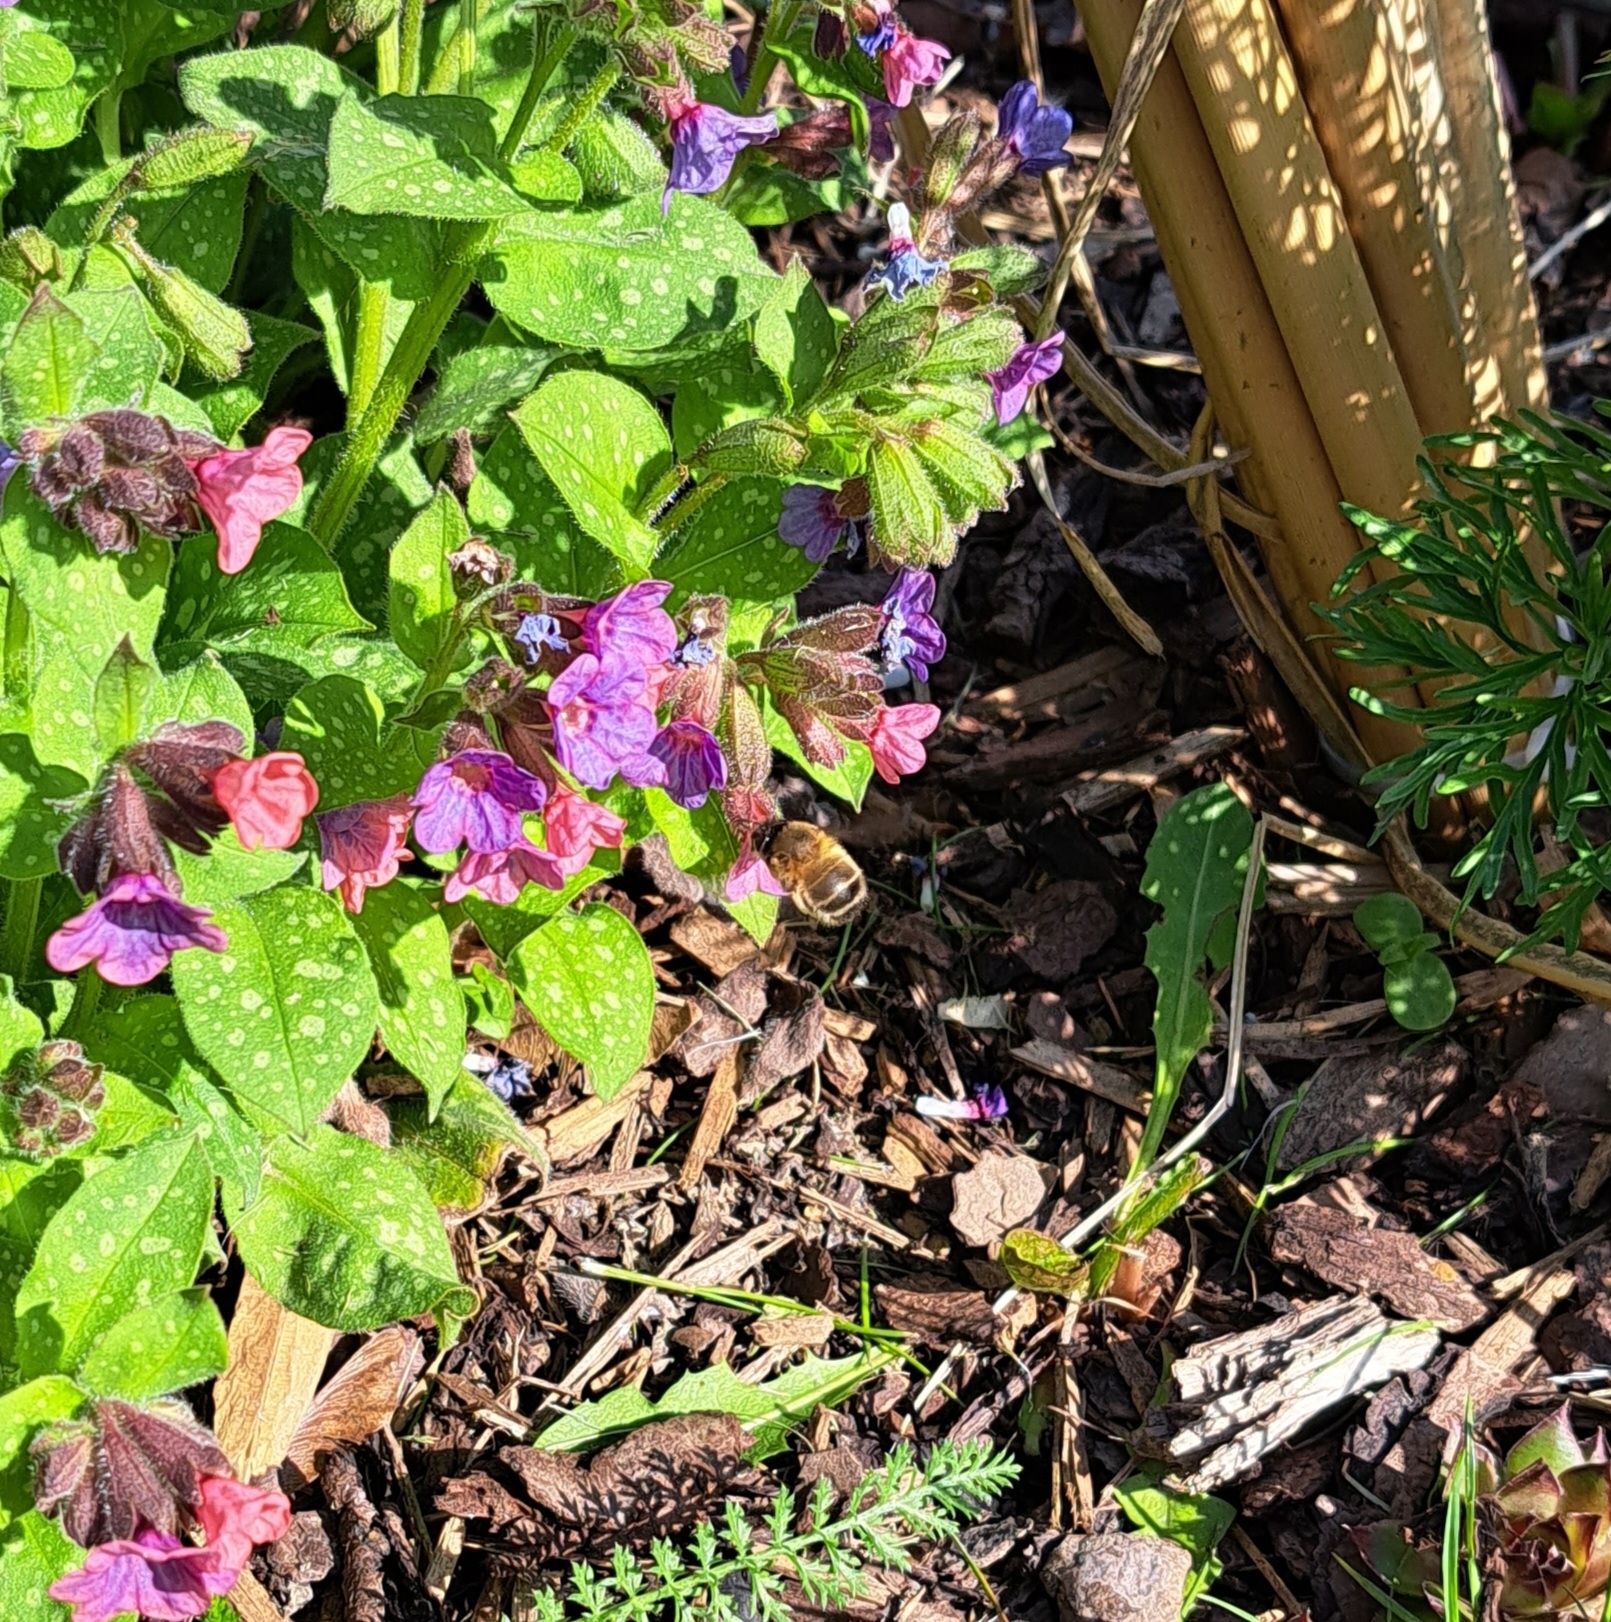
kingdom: Animalia
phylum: Arthropoda
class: Insecta
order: Hymenoptera
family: Apidae
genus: Anthophora
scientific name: Anthophora plumipes
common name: Hairy-footed flower bee
